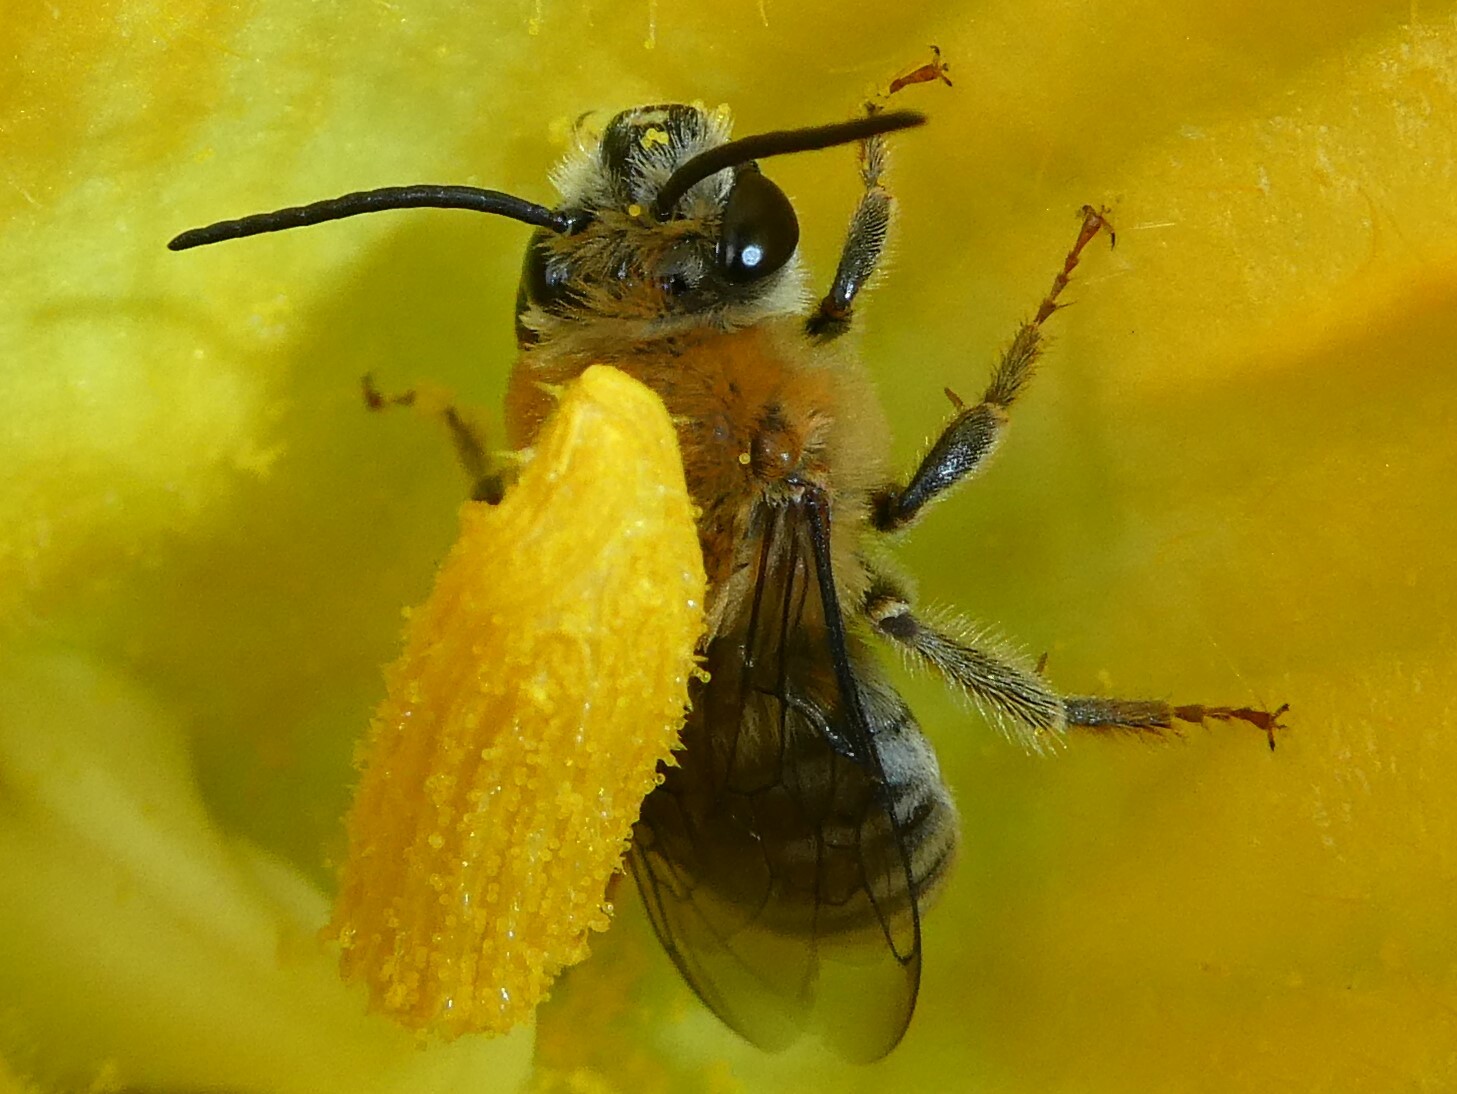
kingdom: Animalia
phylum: Arthropoda
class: Insecta
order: Hymenoptera
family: Apidae
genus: Peponapis
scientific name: Peponapis pruinosa
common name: Pruinose squash bee
